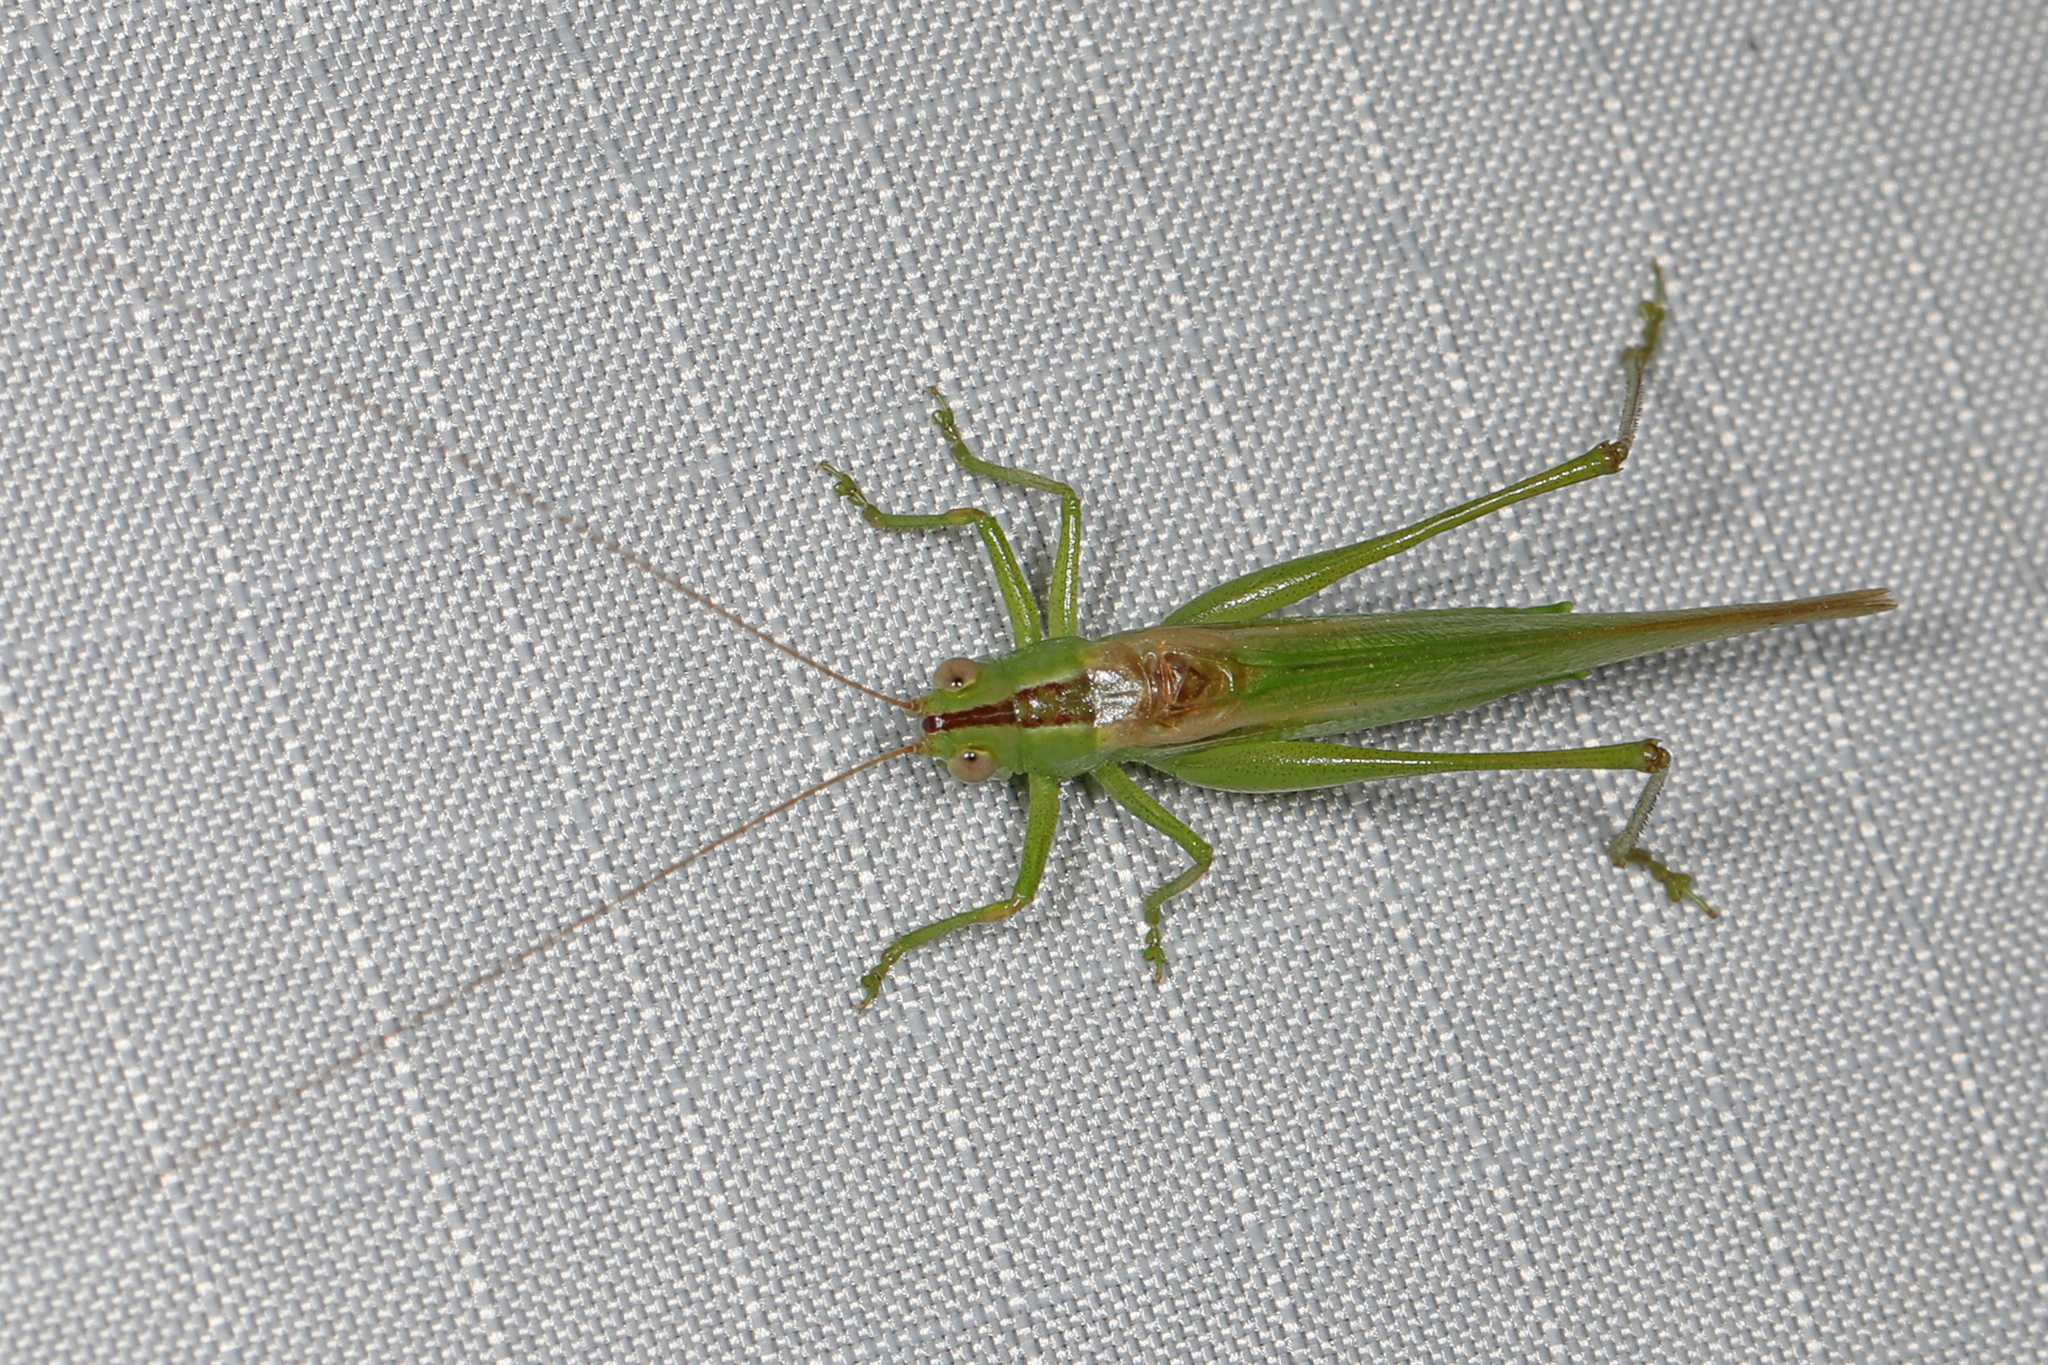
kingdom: Animalia
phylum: Arthropoda
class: Insecta
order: Orthoptera
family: Tettigoniidae
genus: Conocephalus
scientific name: Conocephalus fasciatus
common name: Slender meadow katydid
